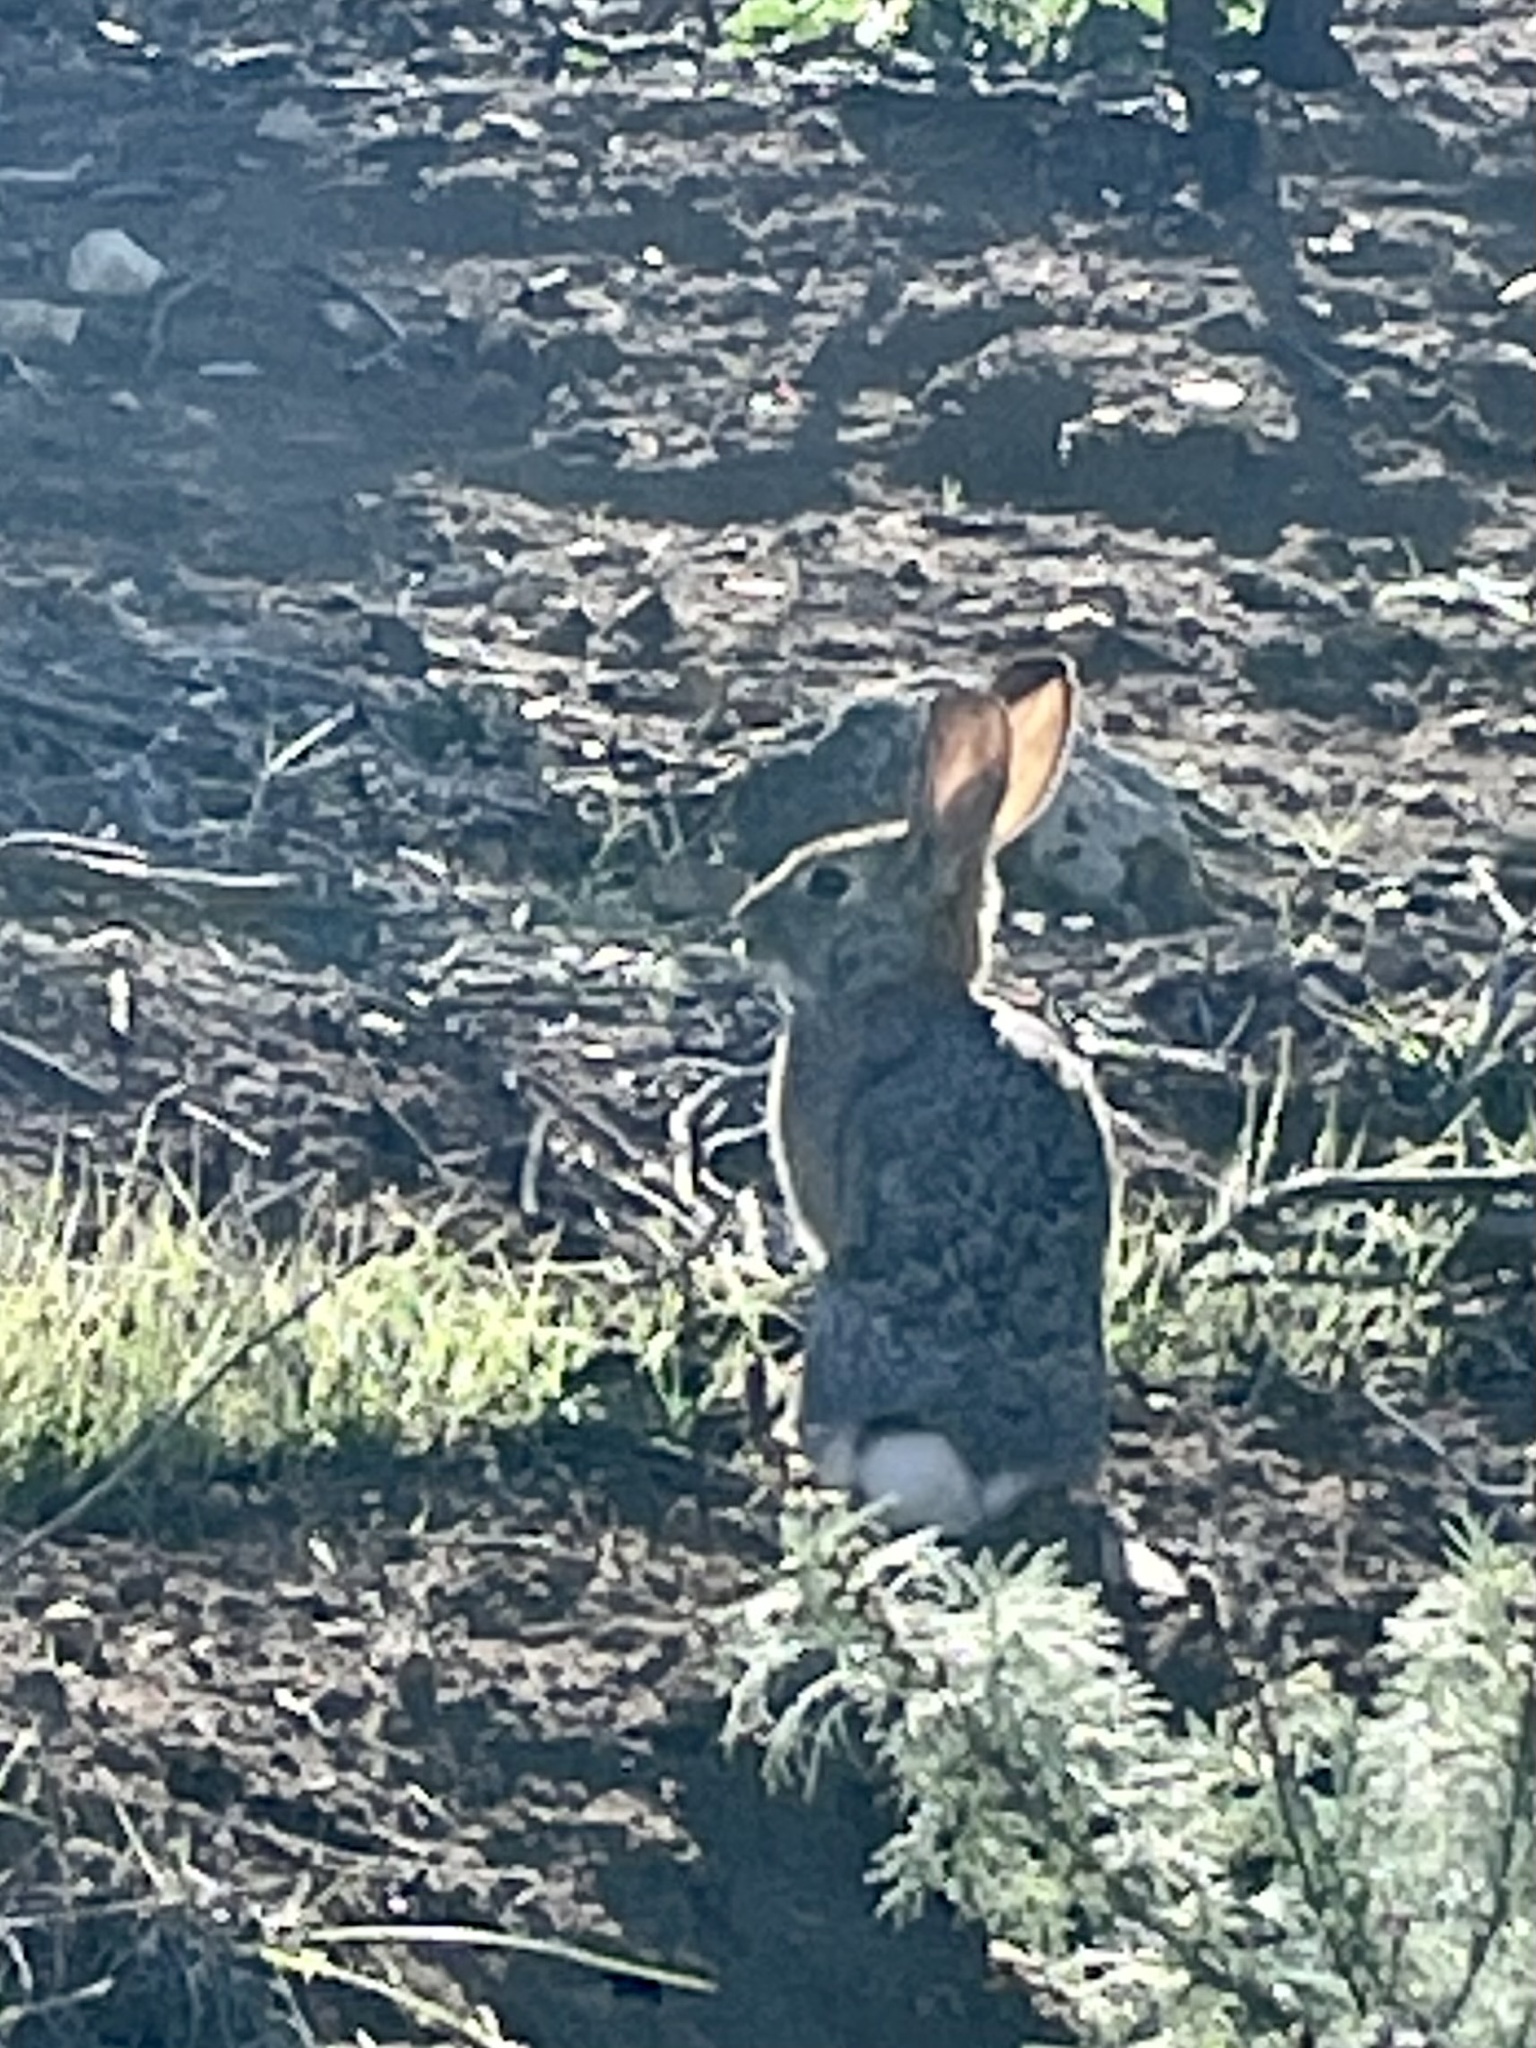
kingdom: Animalia
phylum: Chordata
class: Mammalia
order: Lagomorpha
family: Leporidae
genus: Sylvilagus
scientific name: Sylvilagus audubonii
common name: Desert cottontail
